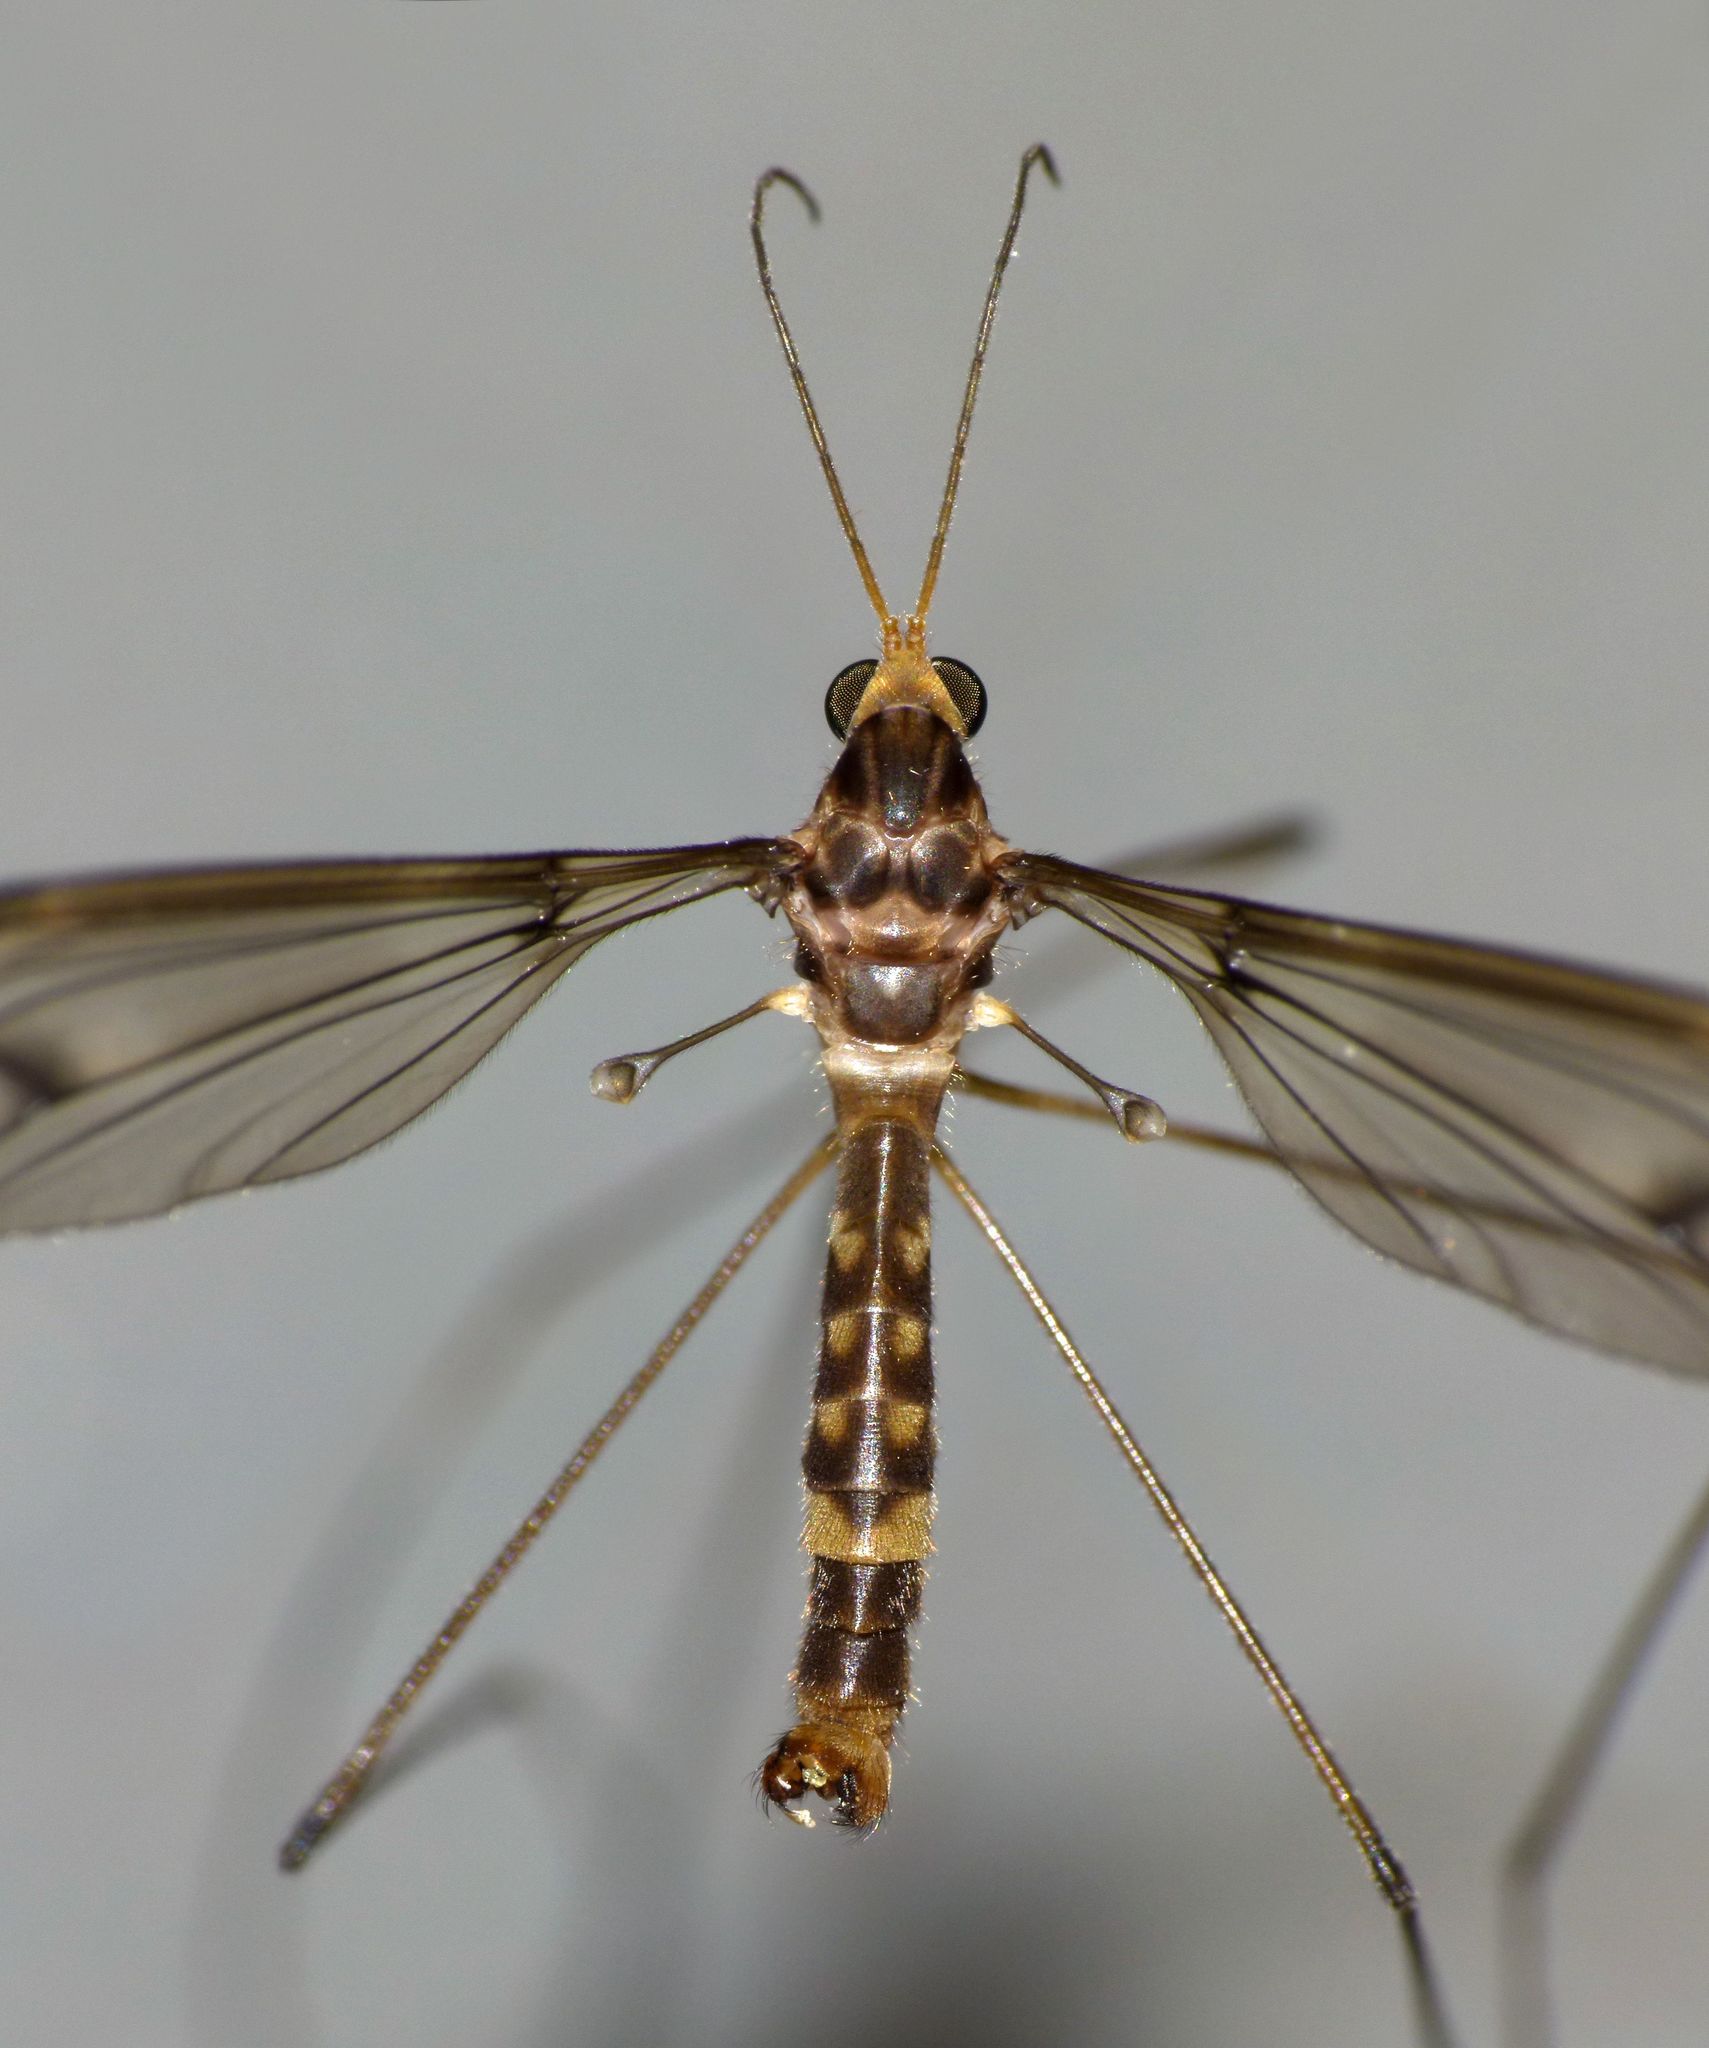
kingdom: Animalia
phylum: Arthropoda
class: Insecta
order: Diptera
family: Tipulidae
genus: Leptotarsus
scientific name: Leptotarsus cubitalis
